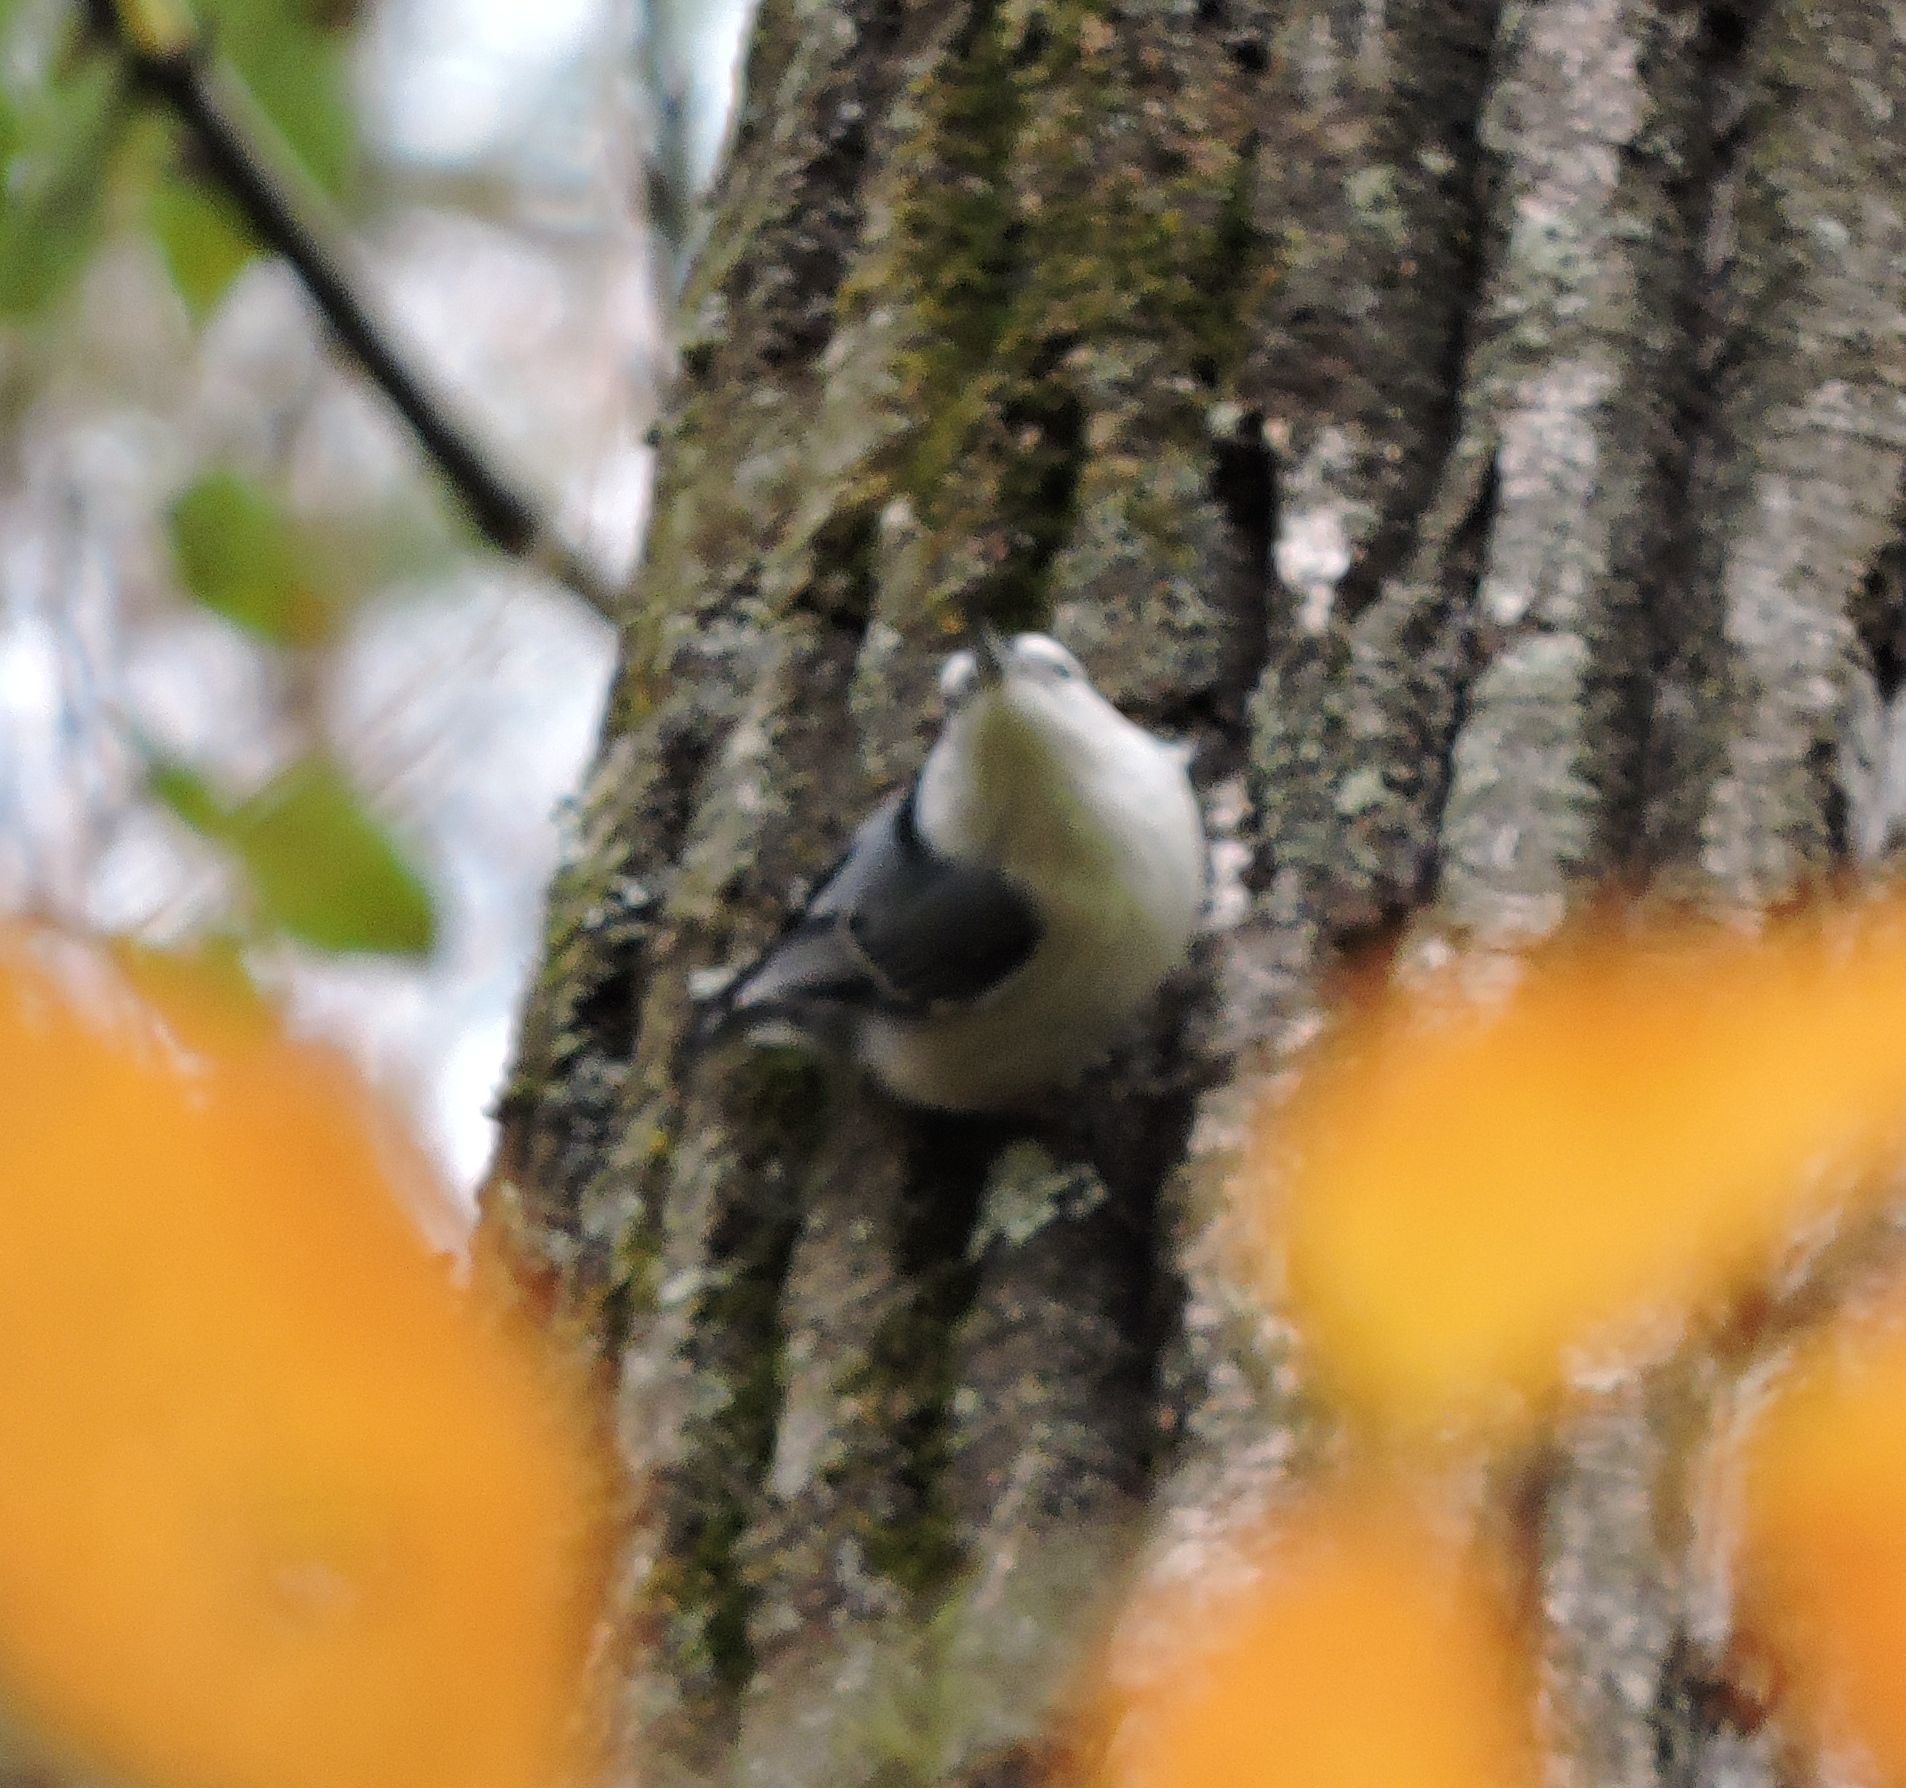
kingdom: Animalia
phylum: Chordata
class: Aves
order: Passeriformes
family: Sittidae
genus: Sitta
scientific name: Sitta carolinensis
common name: White-breasted nuthatch
